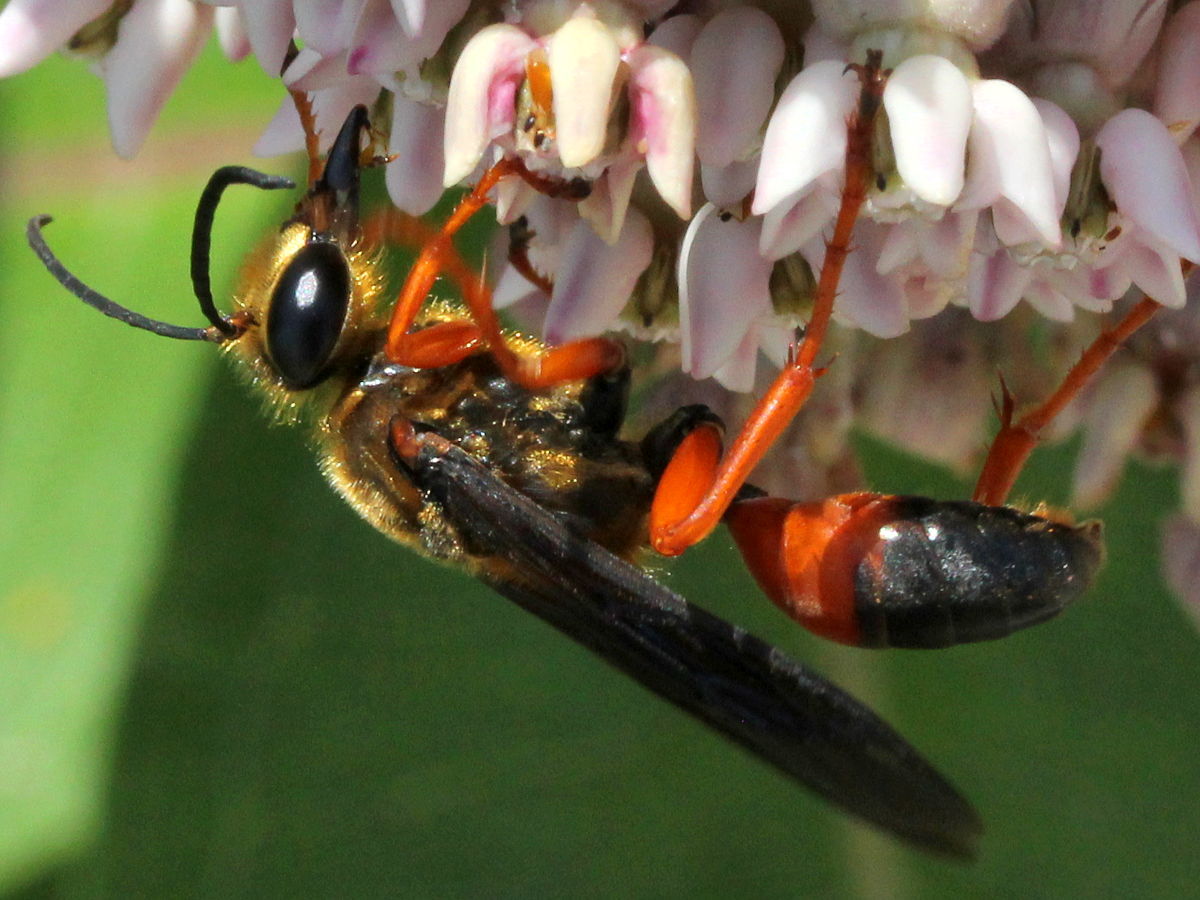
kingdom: Animalia
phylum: Arthropoda
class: Insecta
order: Hymenoptera
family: Sphecidae
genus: Sphex
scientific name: Sphex ichneumoneus
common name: Great golden digger wasp
